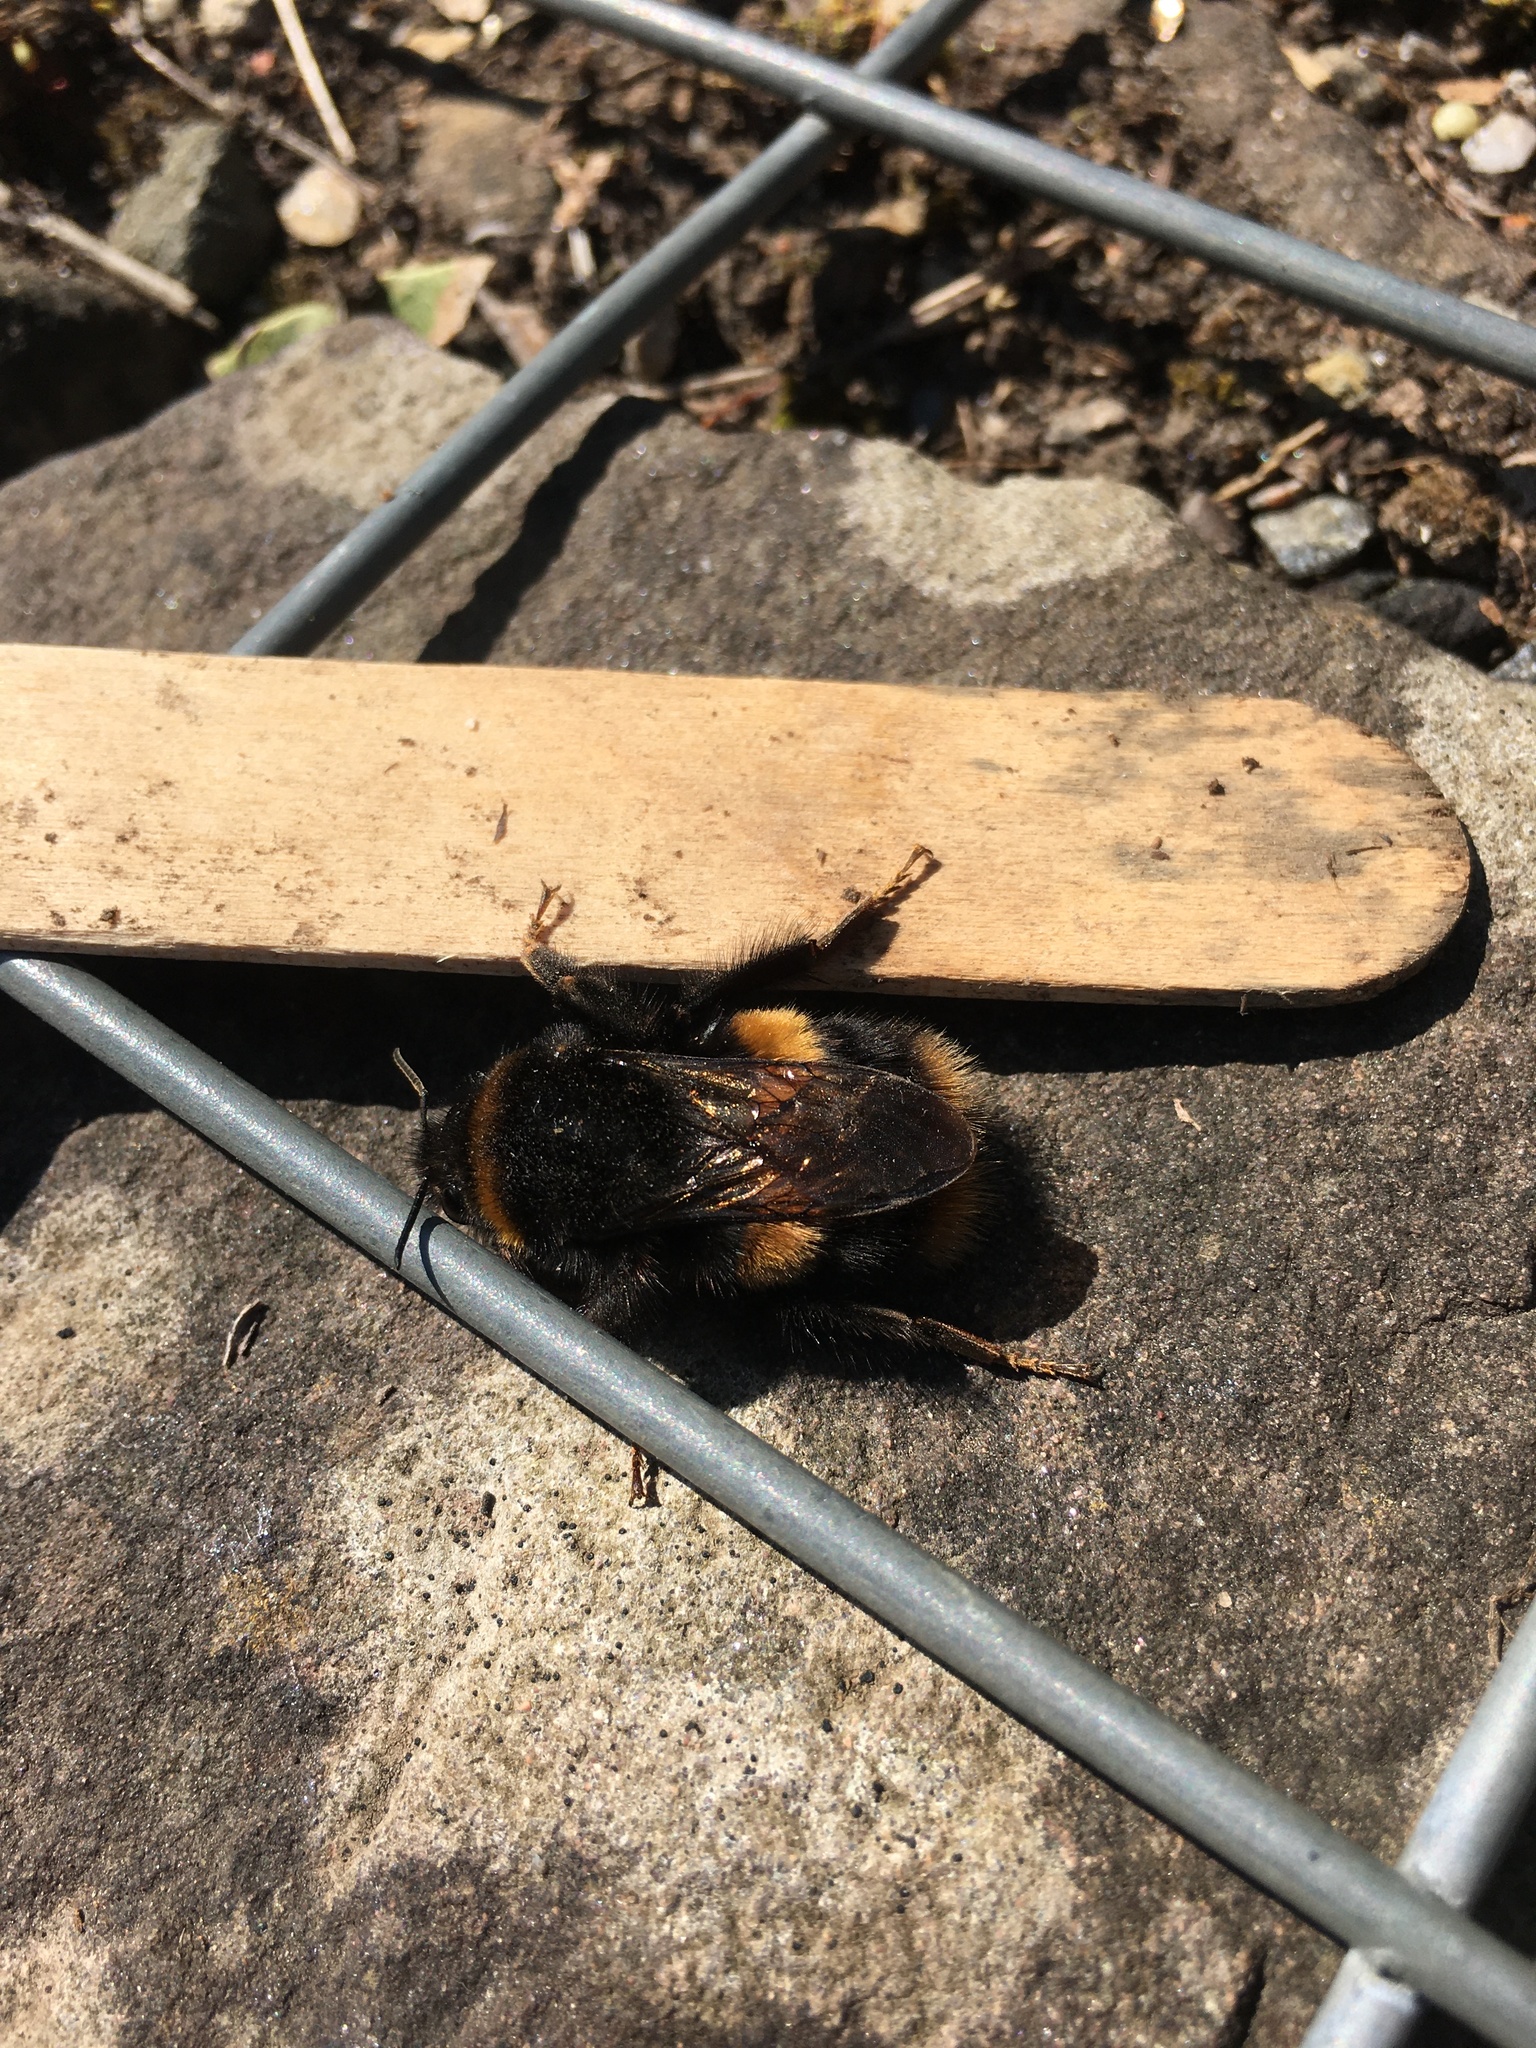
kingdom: Animalia
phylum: Arthropoda
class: Insecta
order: Hymenoptera
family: Apidae
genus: Bombus
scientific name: Bombus terrestris
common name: Buff-tailed bumblebee
